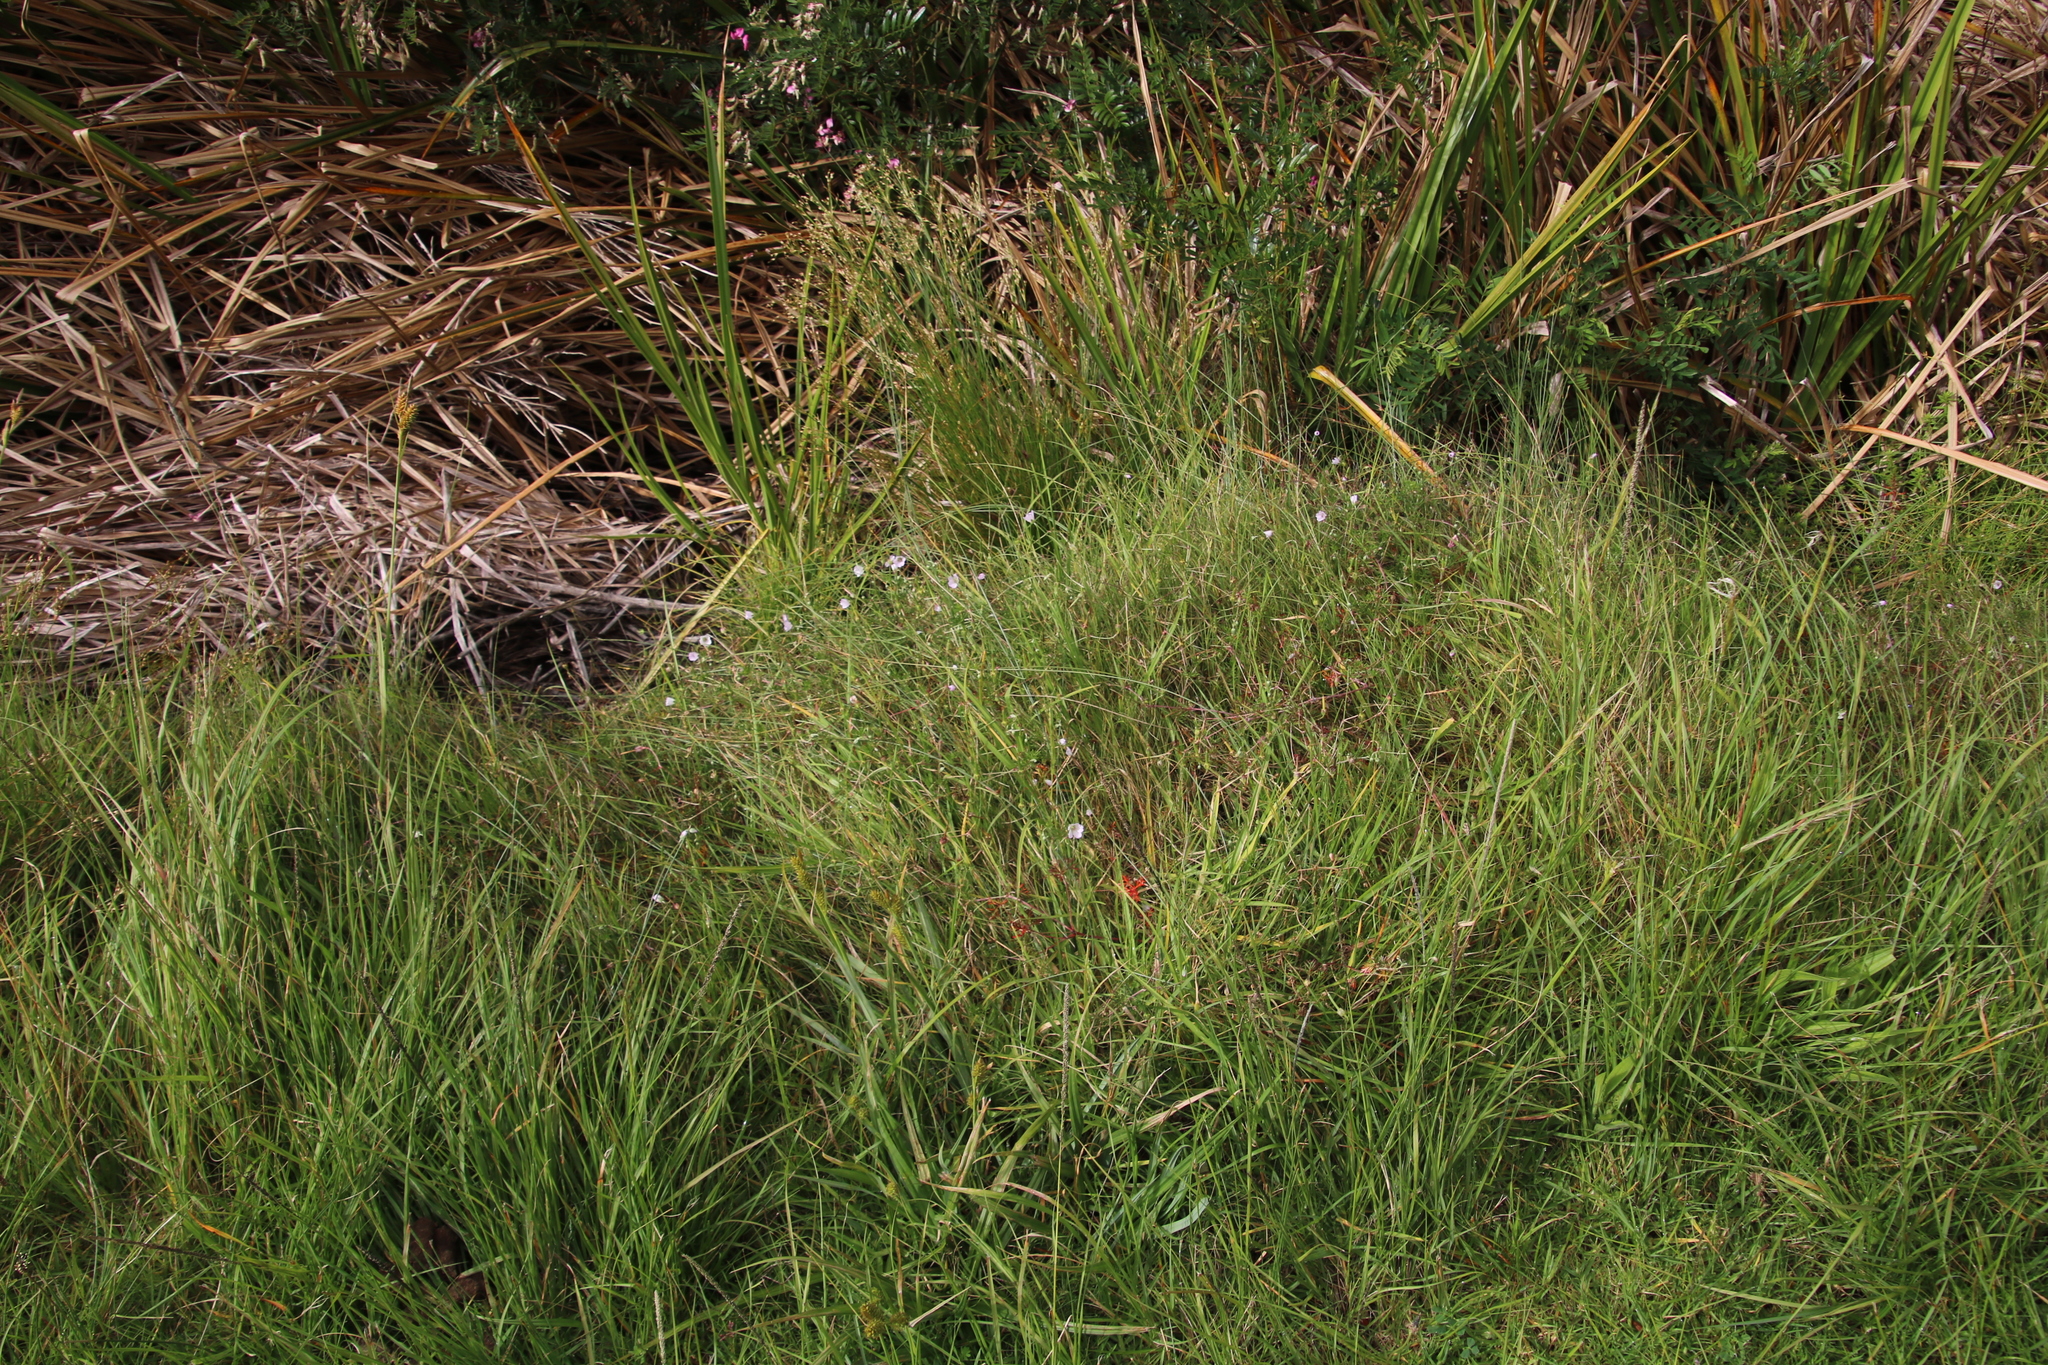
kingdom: Plantae
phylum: Tracheophyta
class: Magnoliopsida
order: Geraniales
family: Geraniaceae
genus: Geranium
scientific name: Geranium incanum
